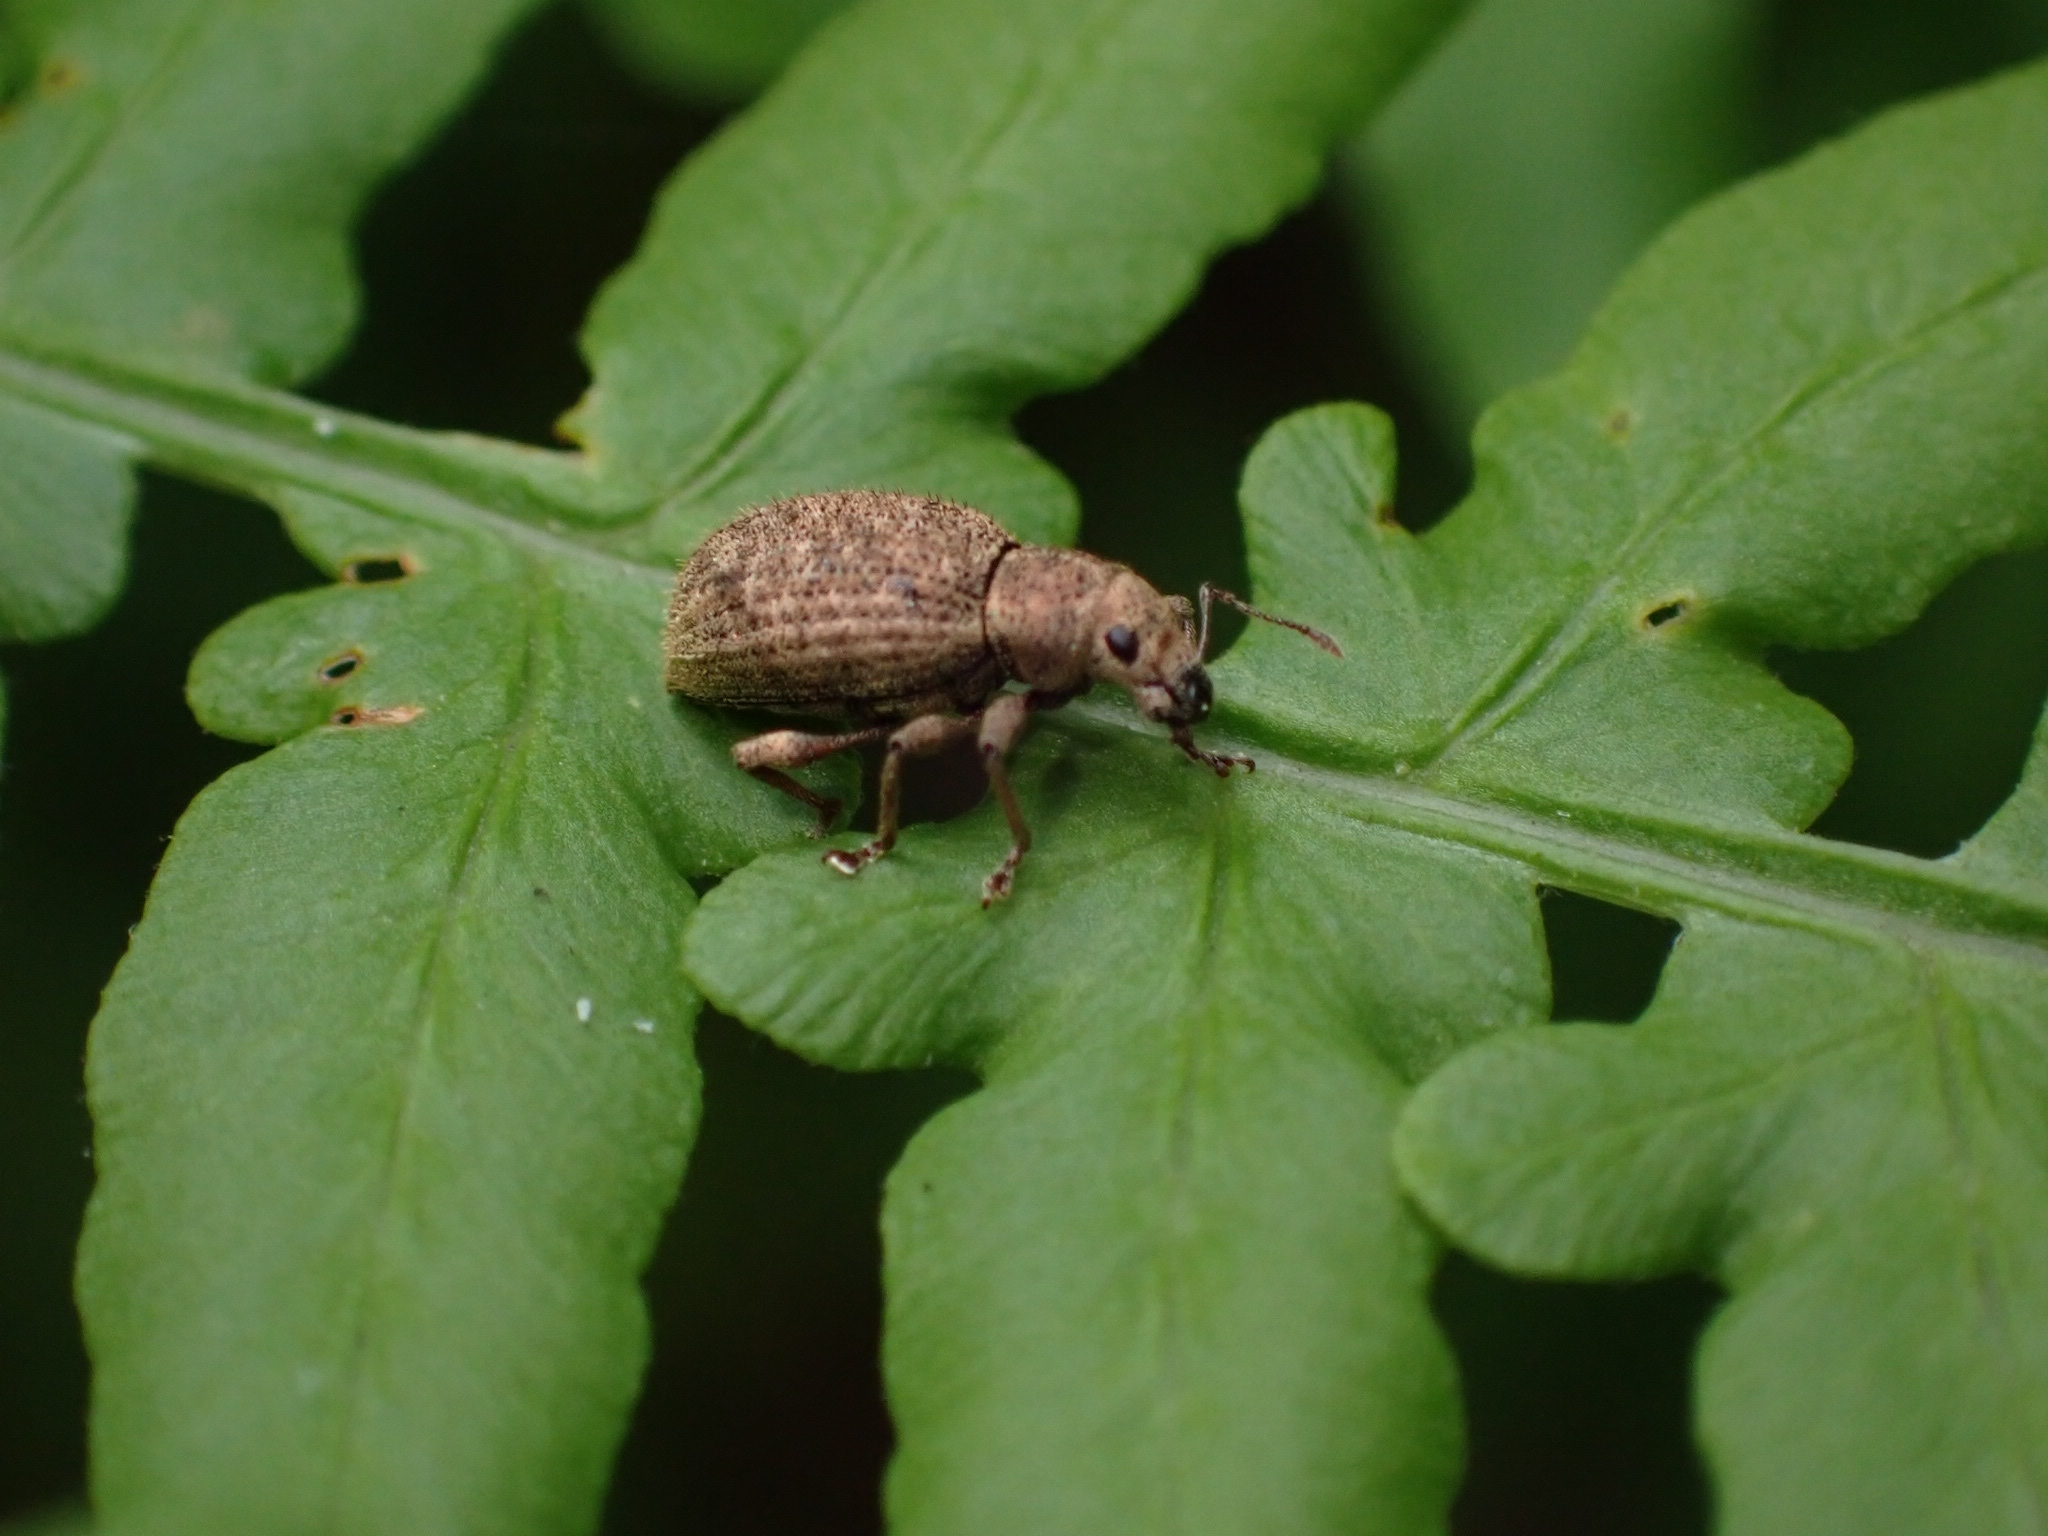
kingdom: Animalia
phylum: Arthropoda
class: Insecta
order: Coleoptera
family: Curculionidae
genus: Sciaphilus
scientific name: Sciaphilus asperatus
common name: Weevil
